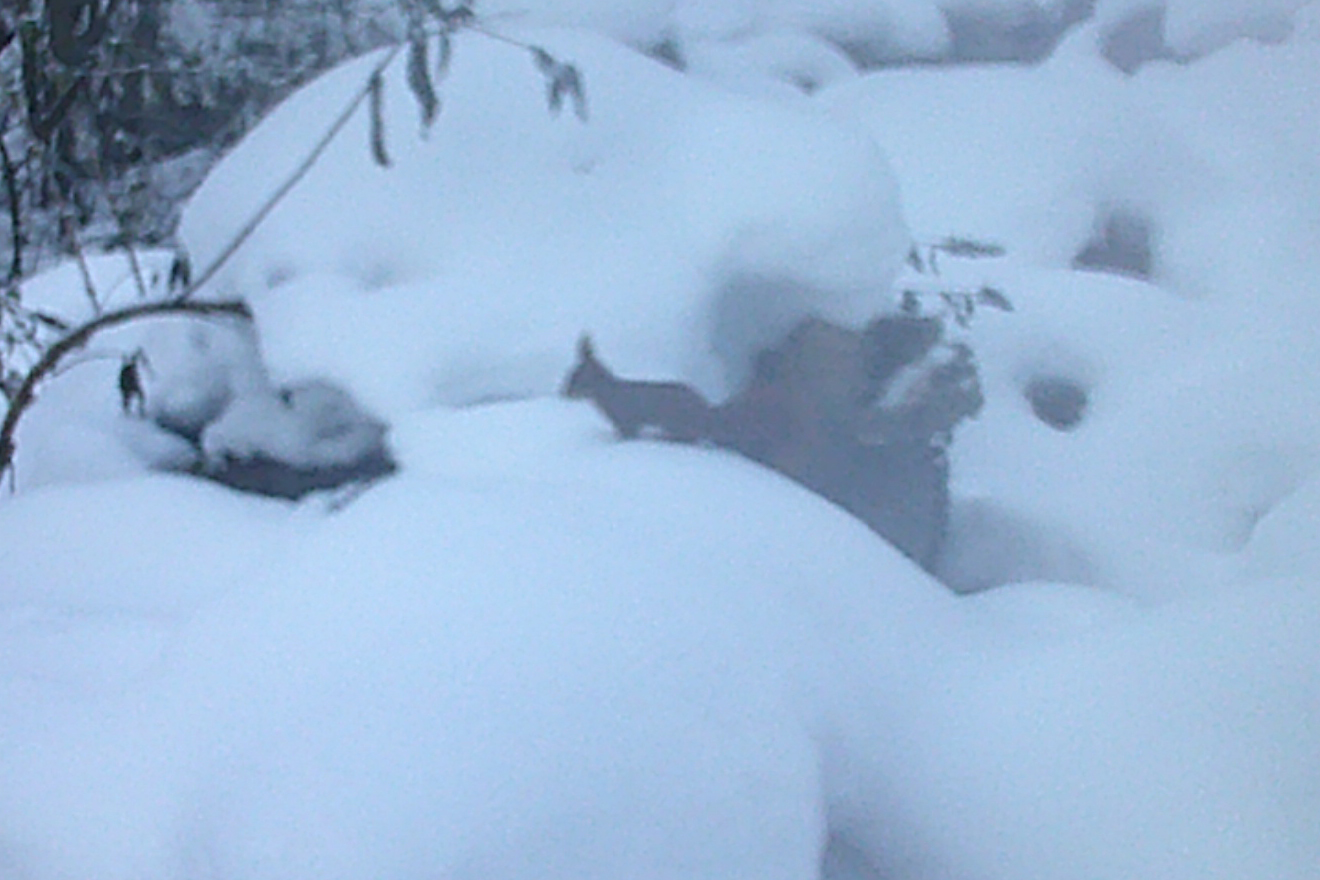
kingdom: Animalia
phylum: Chordata
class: Mammalia
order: Rodentia
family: Sciuridae
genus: Sciurus
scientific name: Sciurus vulgaris
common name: Eurasian red squirrel
